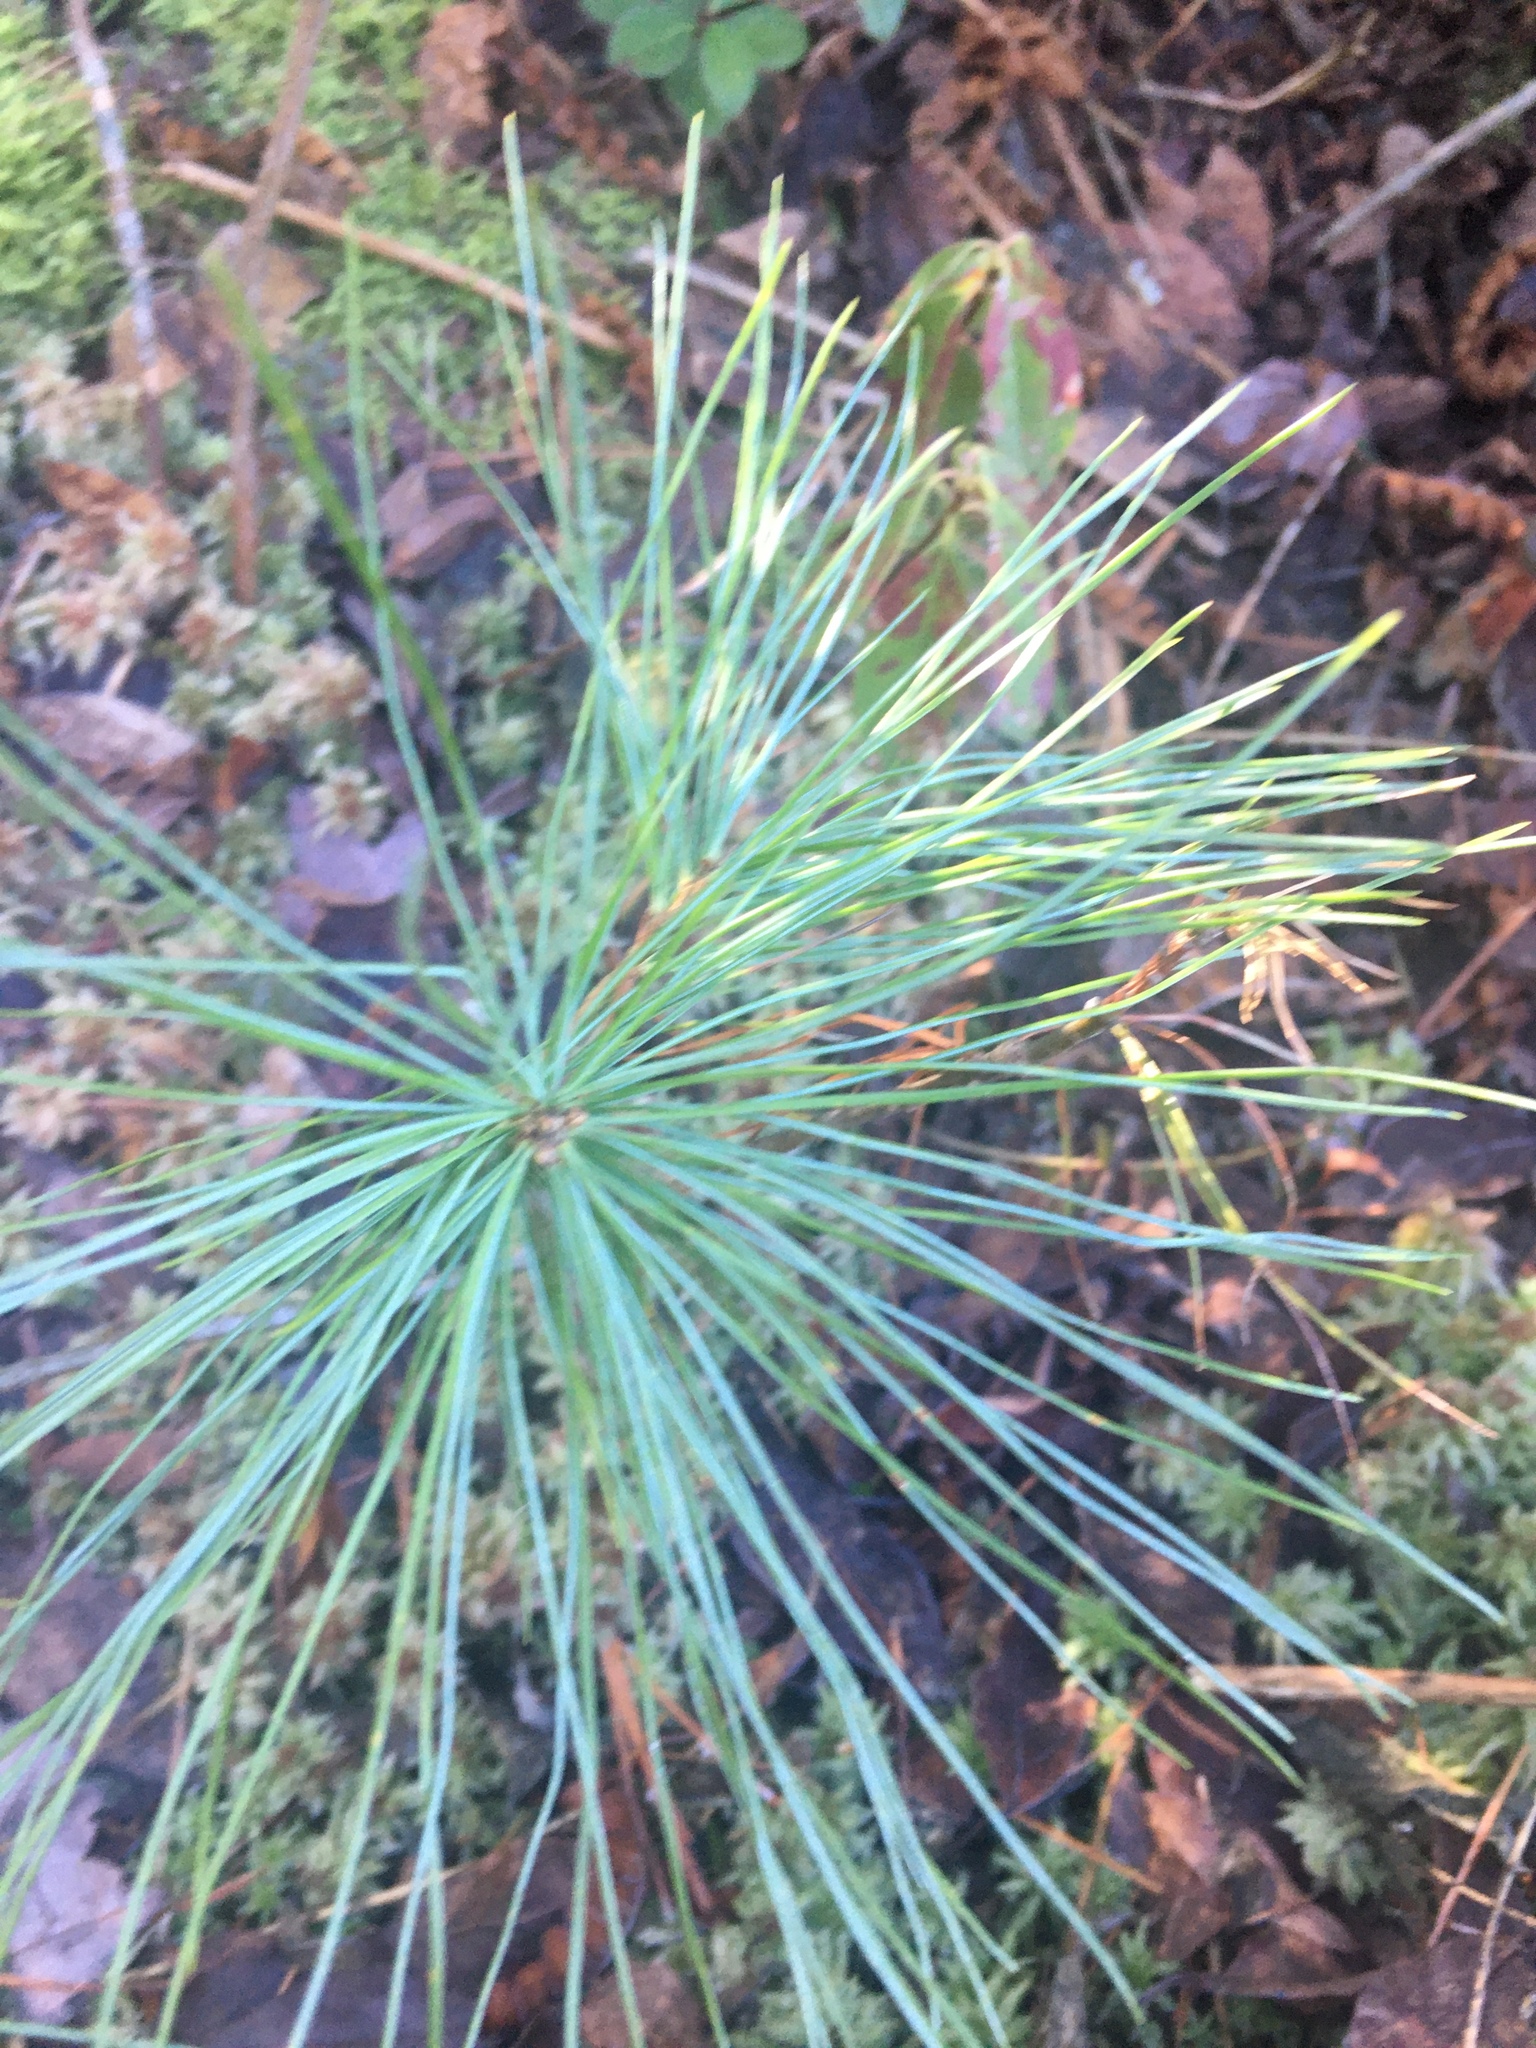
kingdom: Plantae
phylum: Tracheophyta
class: Pinopsida
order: Pinales
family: Pinaceae
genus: Pinus
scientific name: Pinus strobus
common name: Weymouth pine
